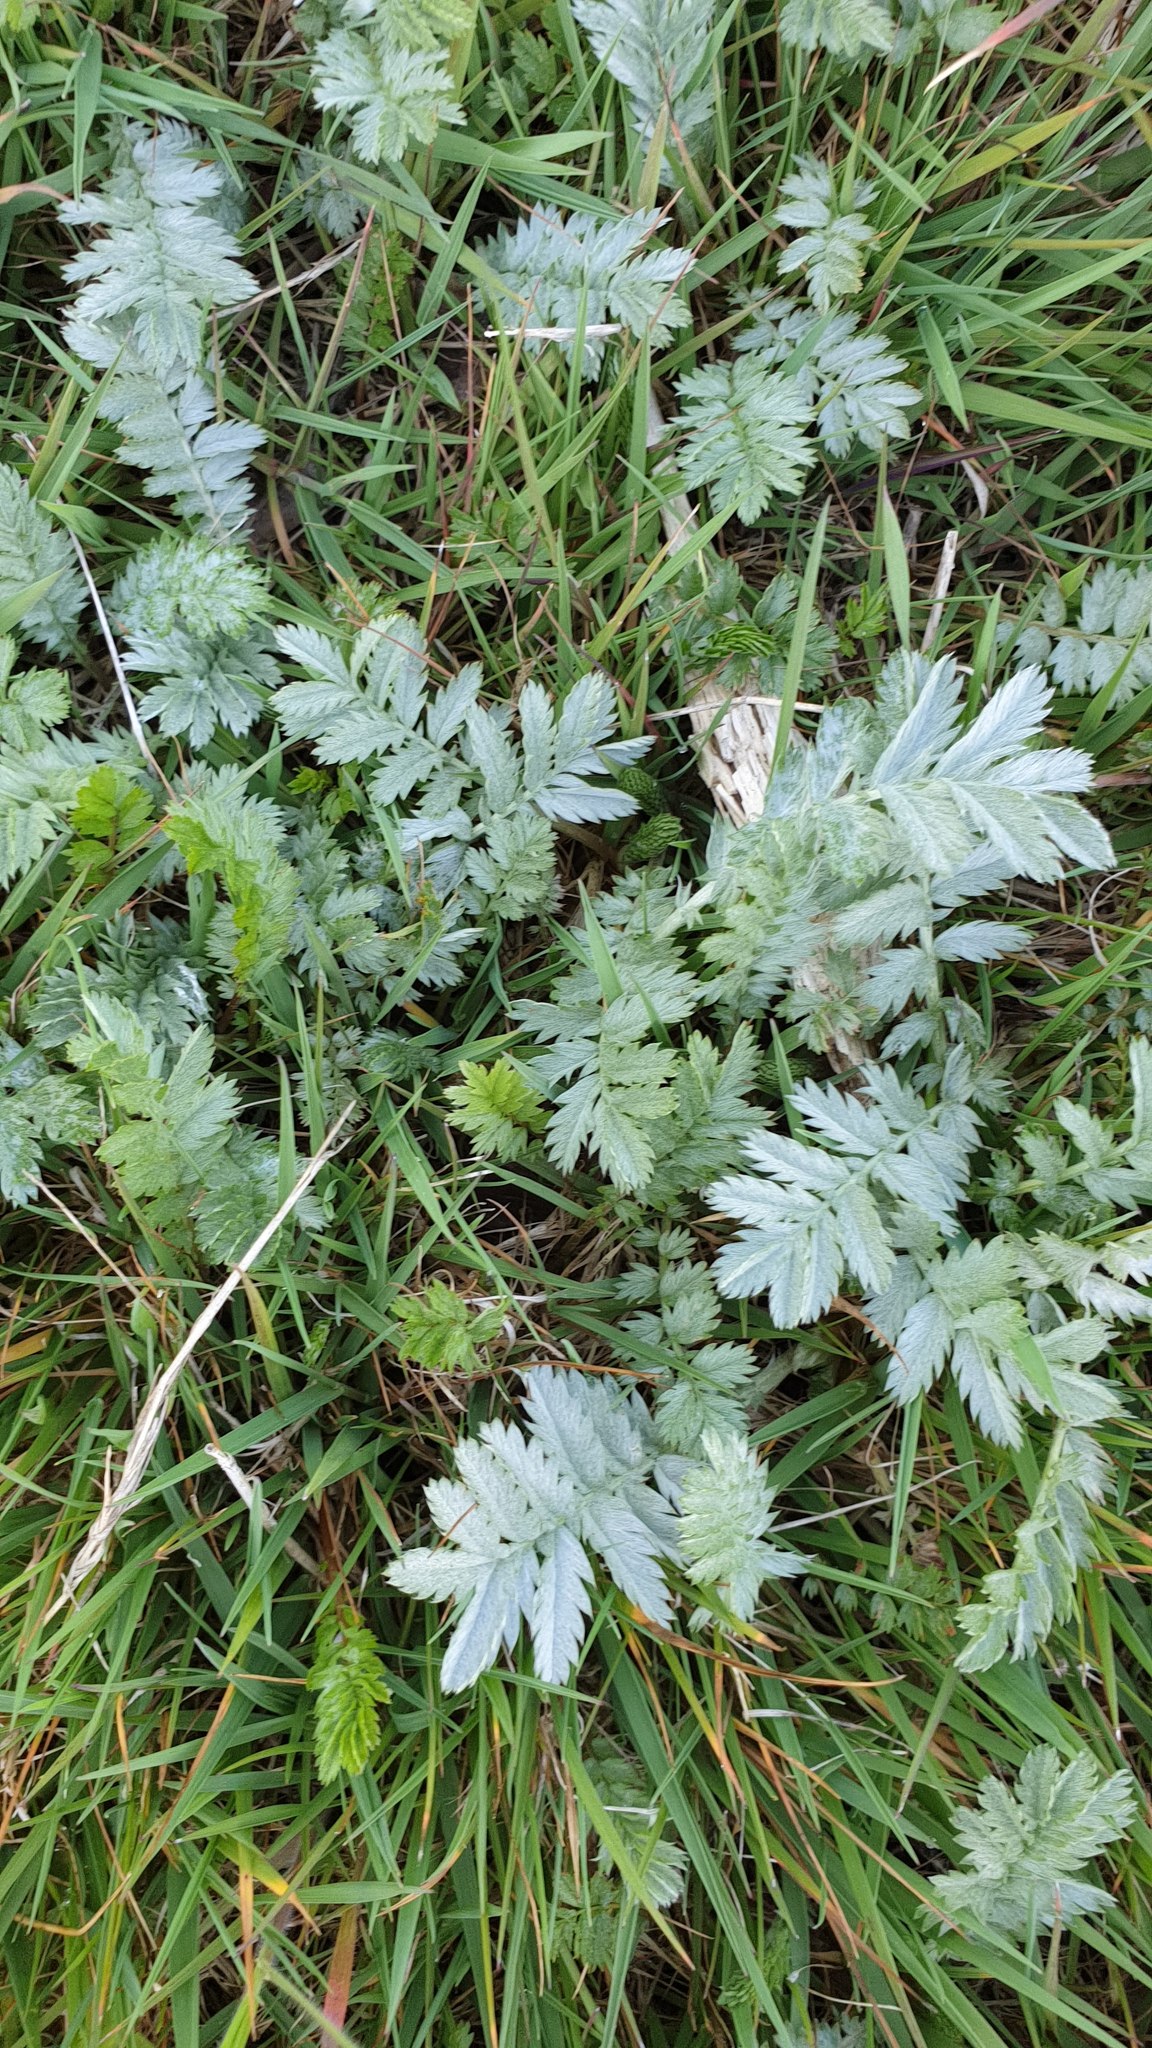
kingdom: Plantae
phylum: Tracheophyta
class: Magnoliopsida
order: Rosales
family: Rosaceae
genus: Argentina
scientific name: Argentina anserina
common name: Common silverweed
